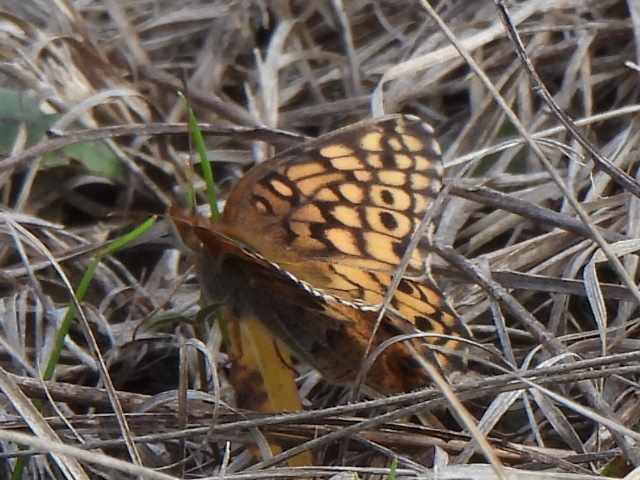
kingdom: Animalia
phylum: Arthropoda
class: Insecta
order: Lepidoptera
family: Nymphalidae
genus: Euptoieta
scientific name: Euptoieta claudia
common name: Variegated fritillary
